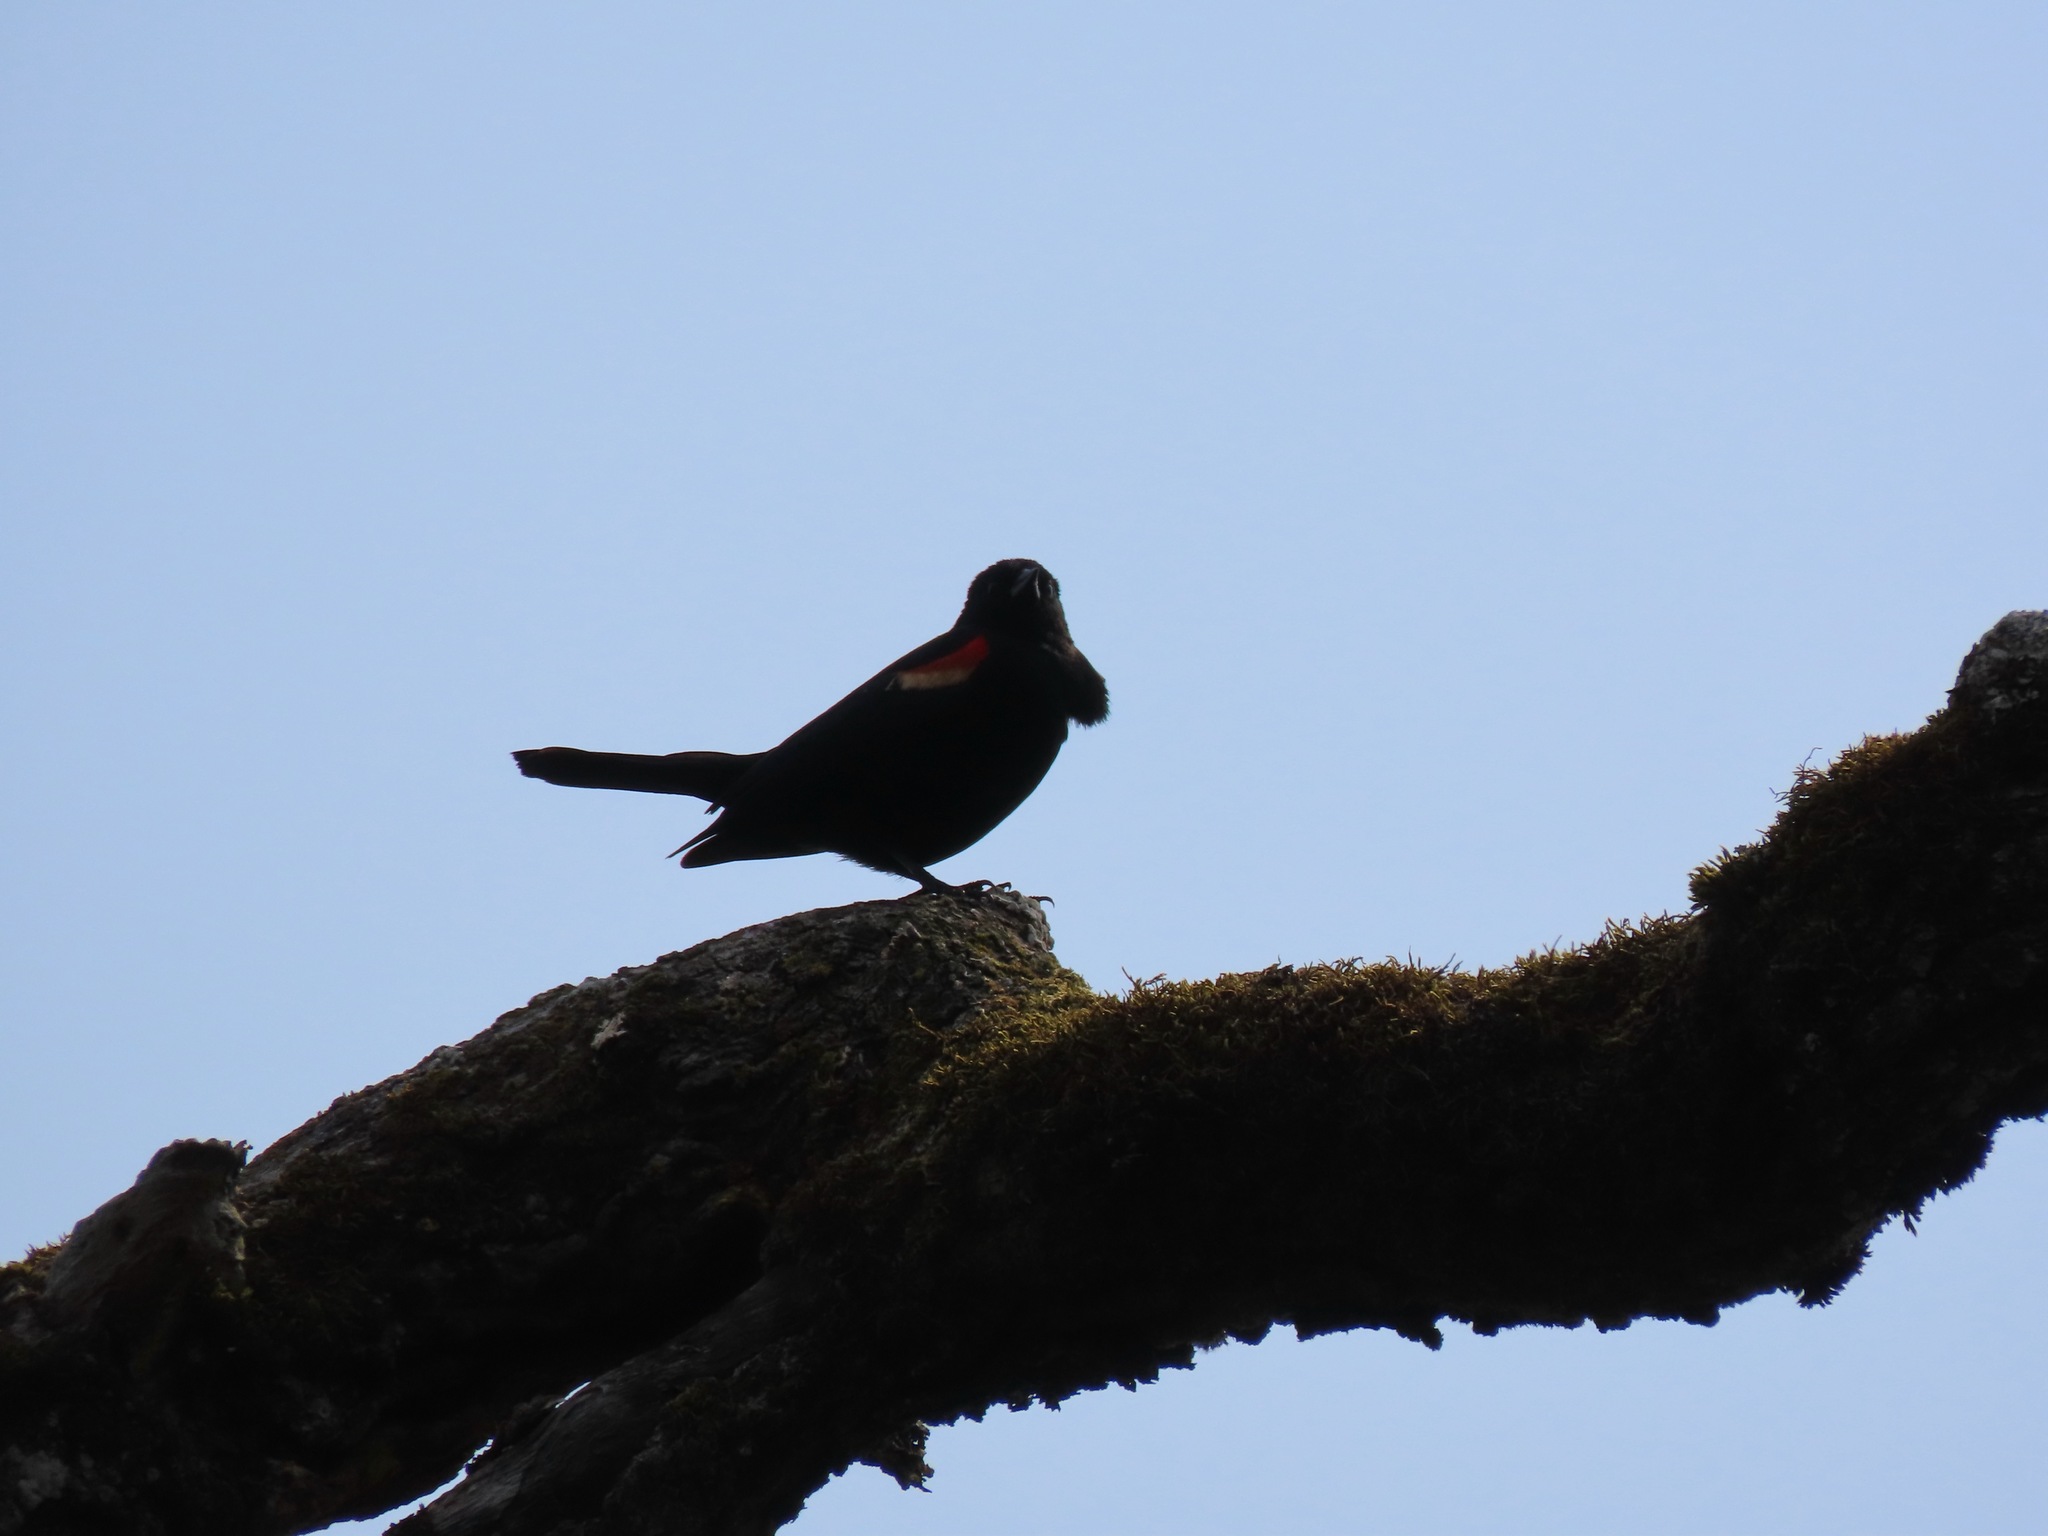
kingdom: Animalia
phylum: Chordata
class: Aves
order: Passeriformes
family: Icteridae
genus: Agelaius
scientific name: Agelaius phoeniceus
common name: Red-winged blackbird
